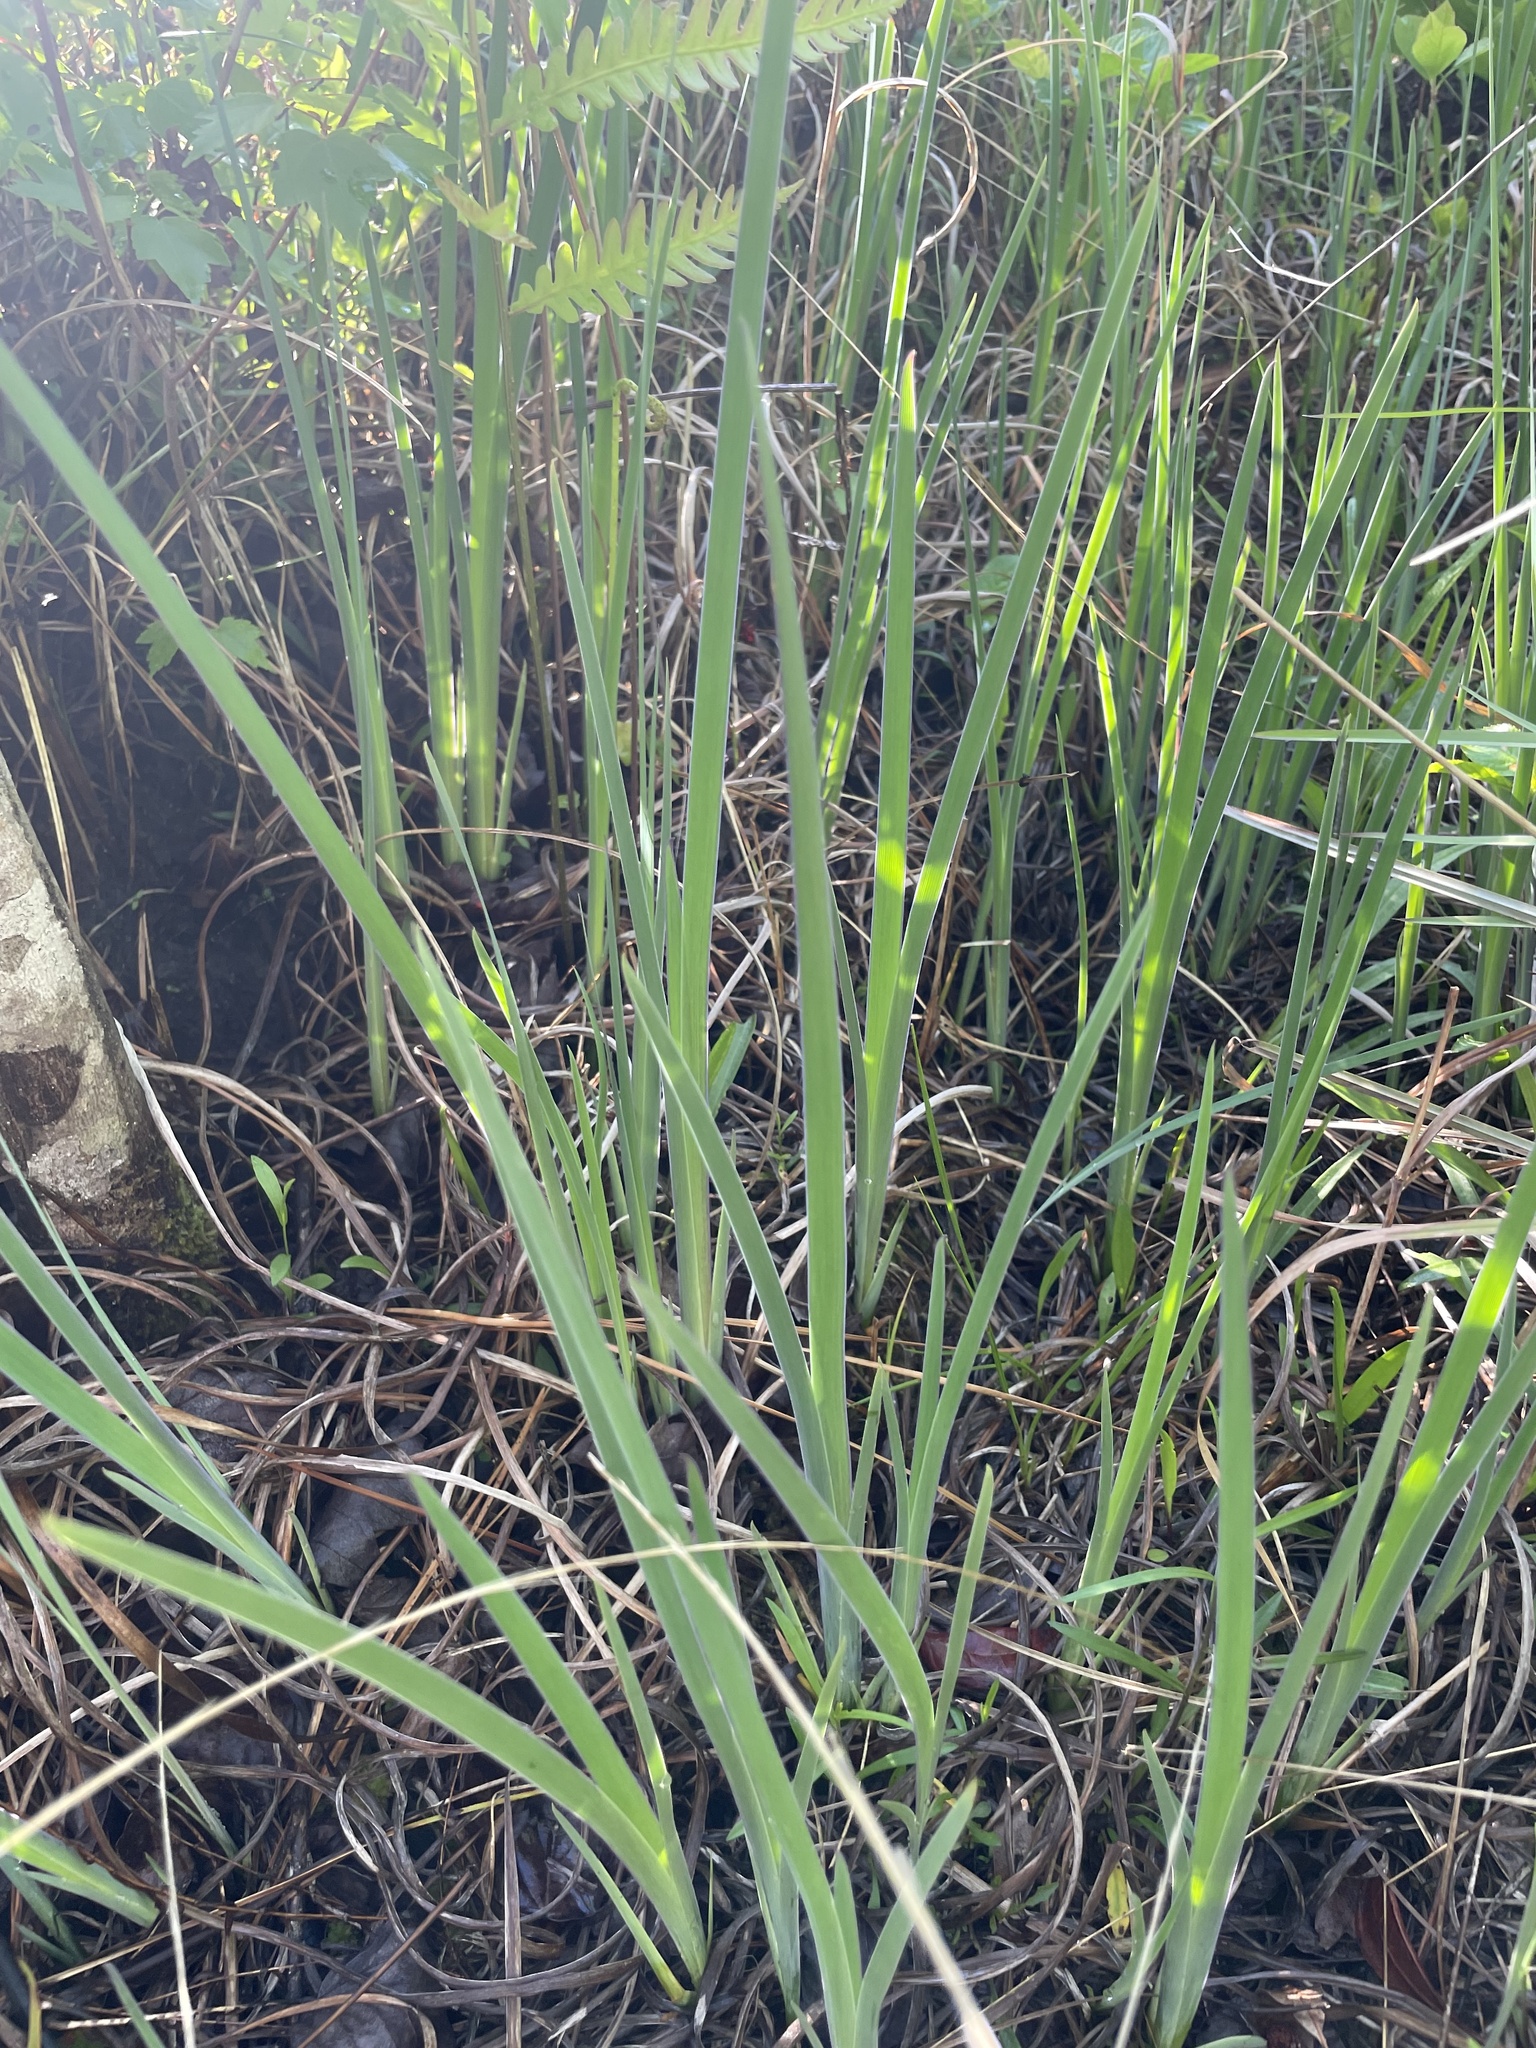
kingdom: Plantae
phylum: Tracheophyta
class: Liliopsida
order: Asparagales
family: Iridaceae
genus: Iris
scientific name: Iris tridentata
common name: Savannah iris
